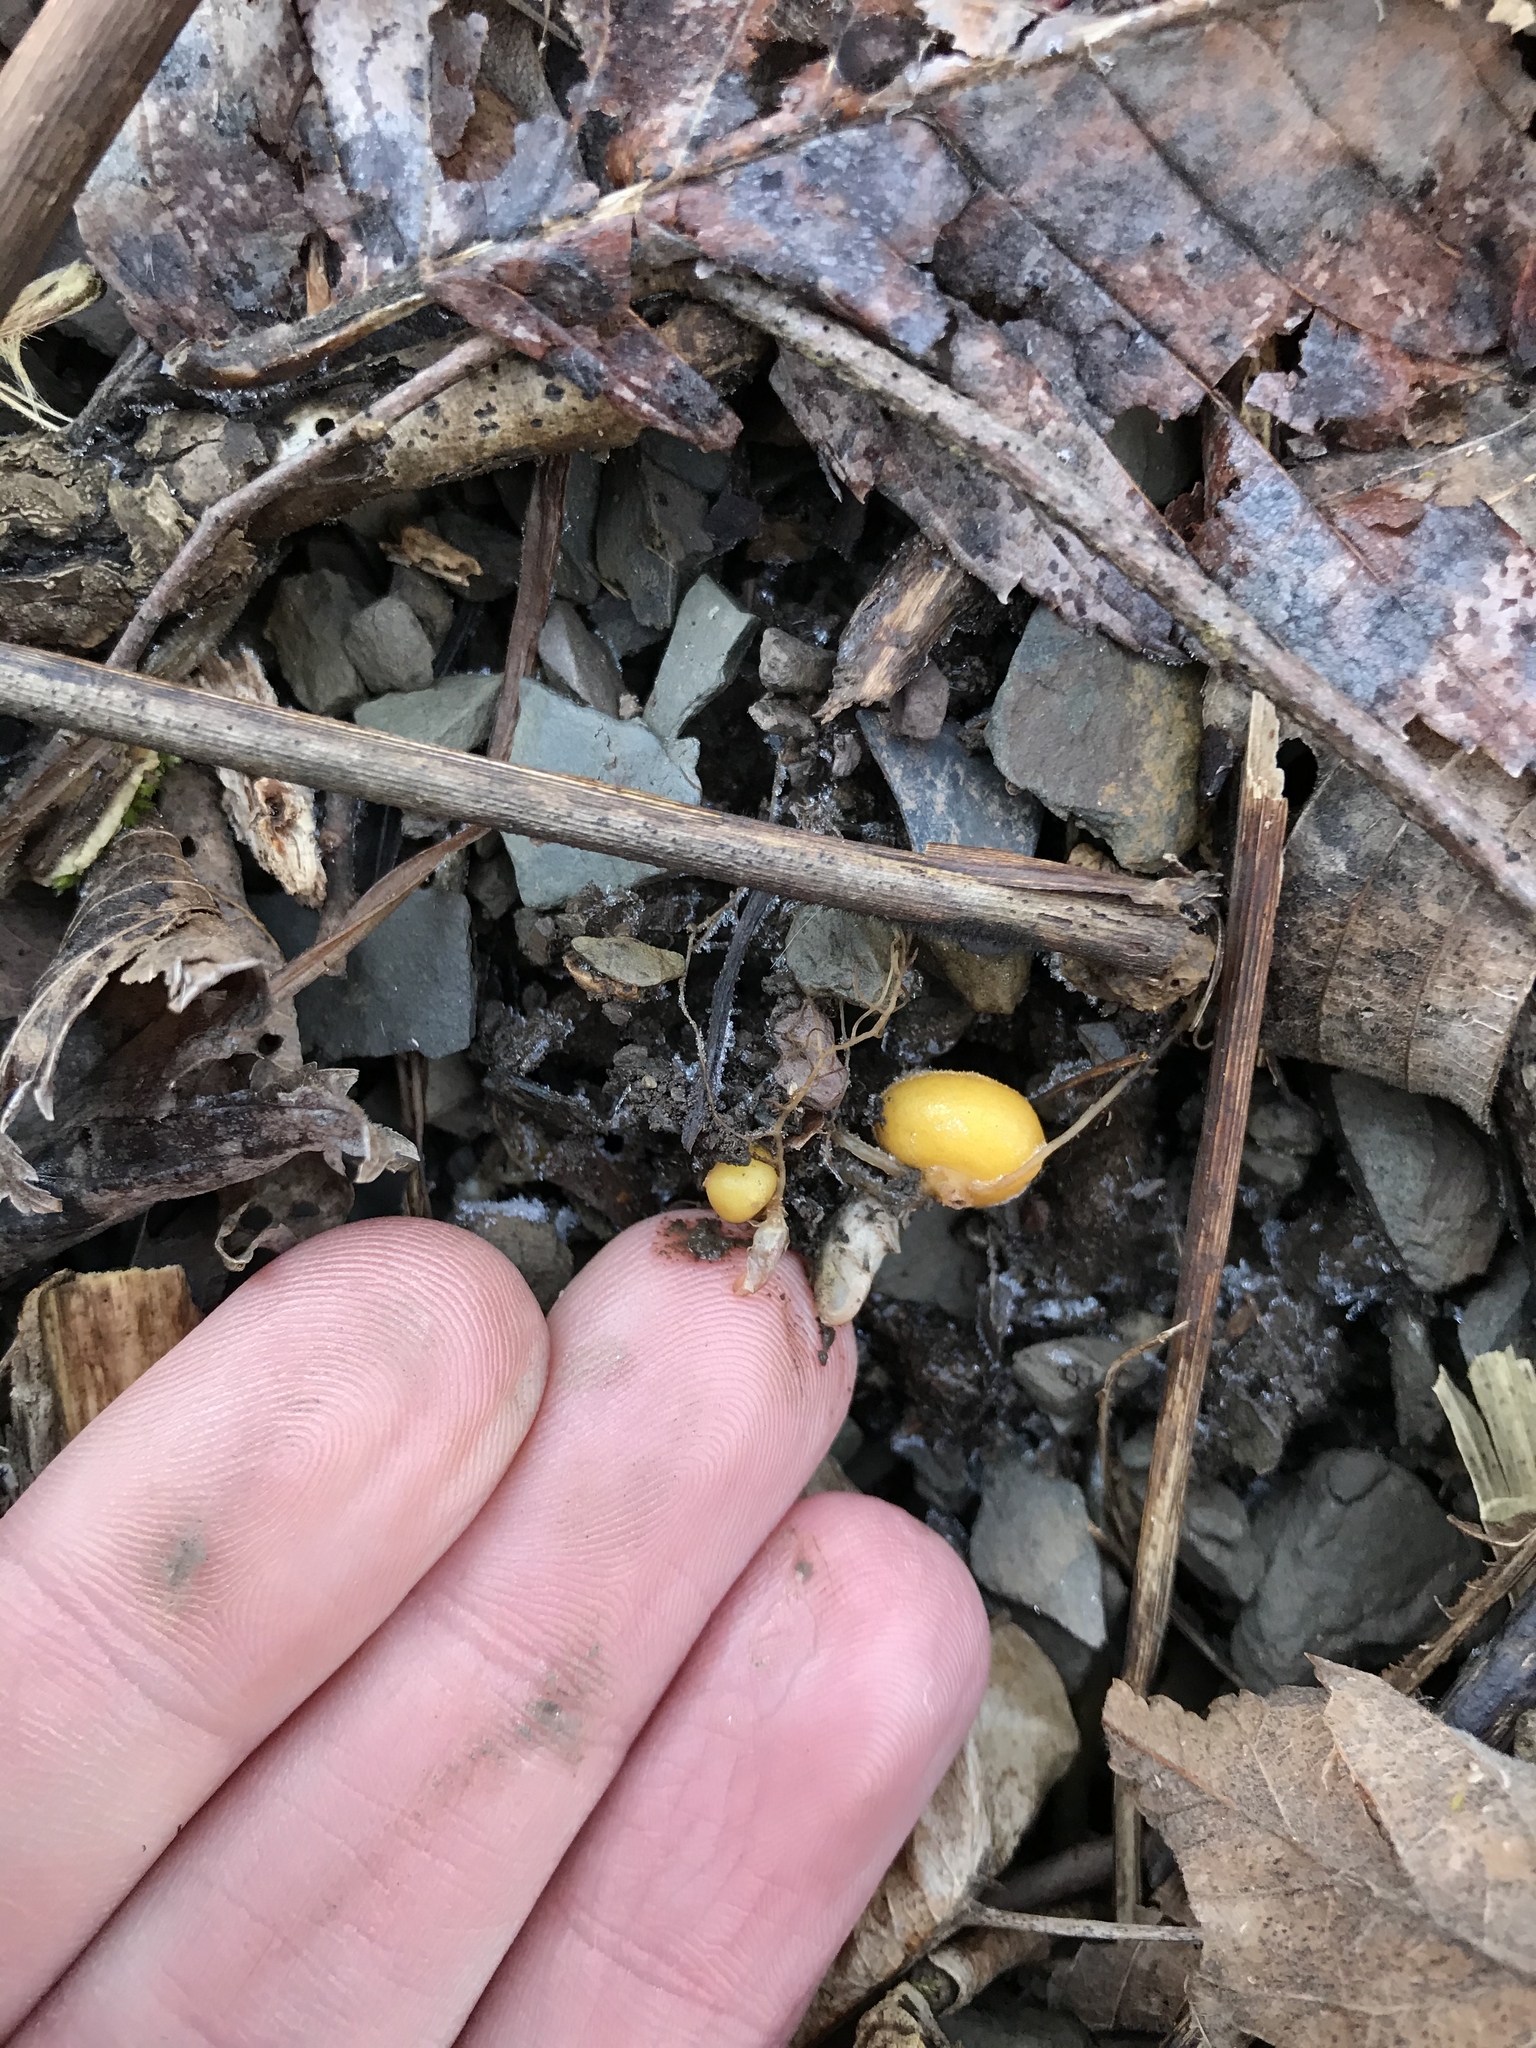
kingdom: Plantae
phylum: Tracheophyta
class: Magnoliopsida
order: Ranunculales
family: Papaveraceae
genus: Dicentra
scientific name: Dicentra canadensis
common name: Squirrel-corn
